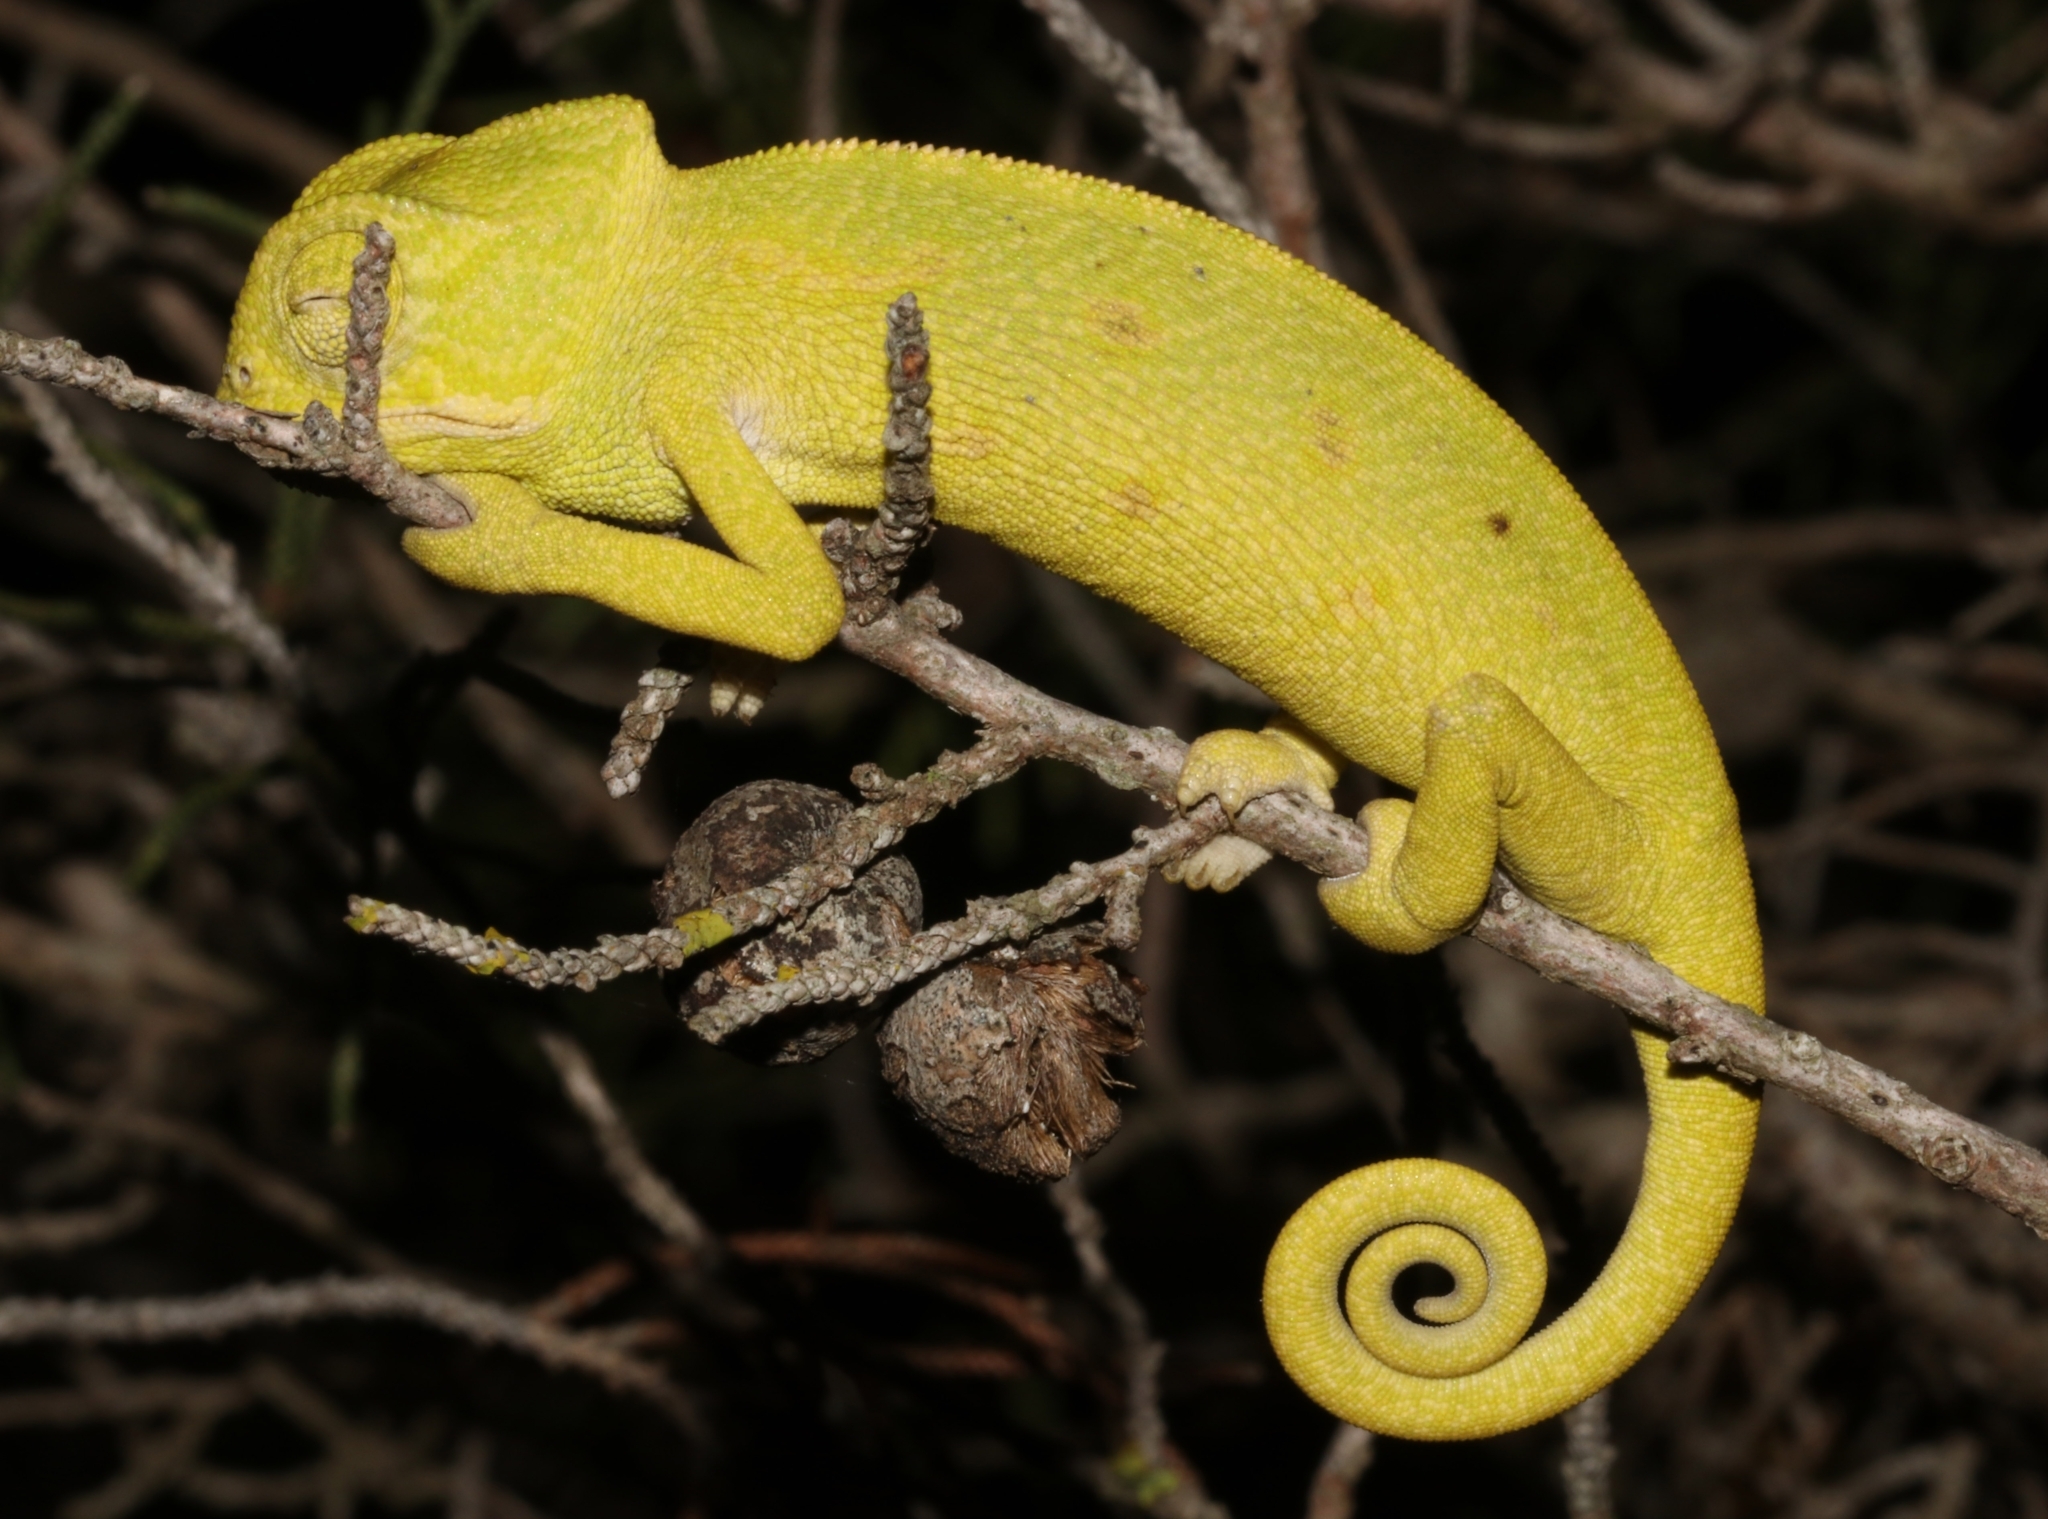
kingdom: Animalia
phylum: Chordata
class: Squamata
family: Chamaeleonidae
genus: Chamaeleo
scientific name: Chamaeleo africanus
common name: African chameleon
